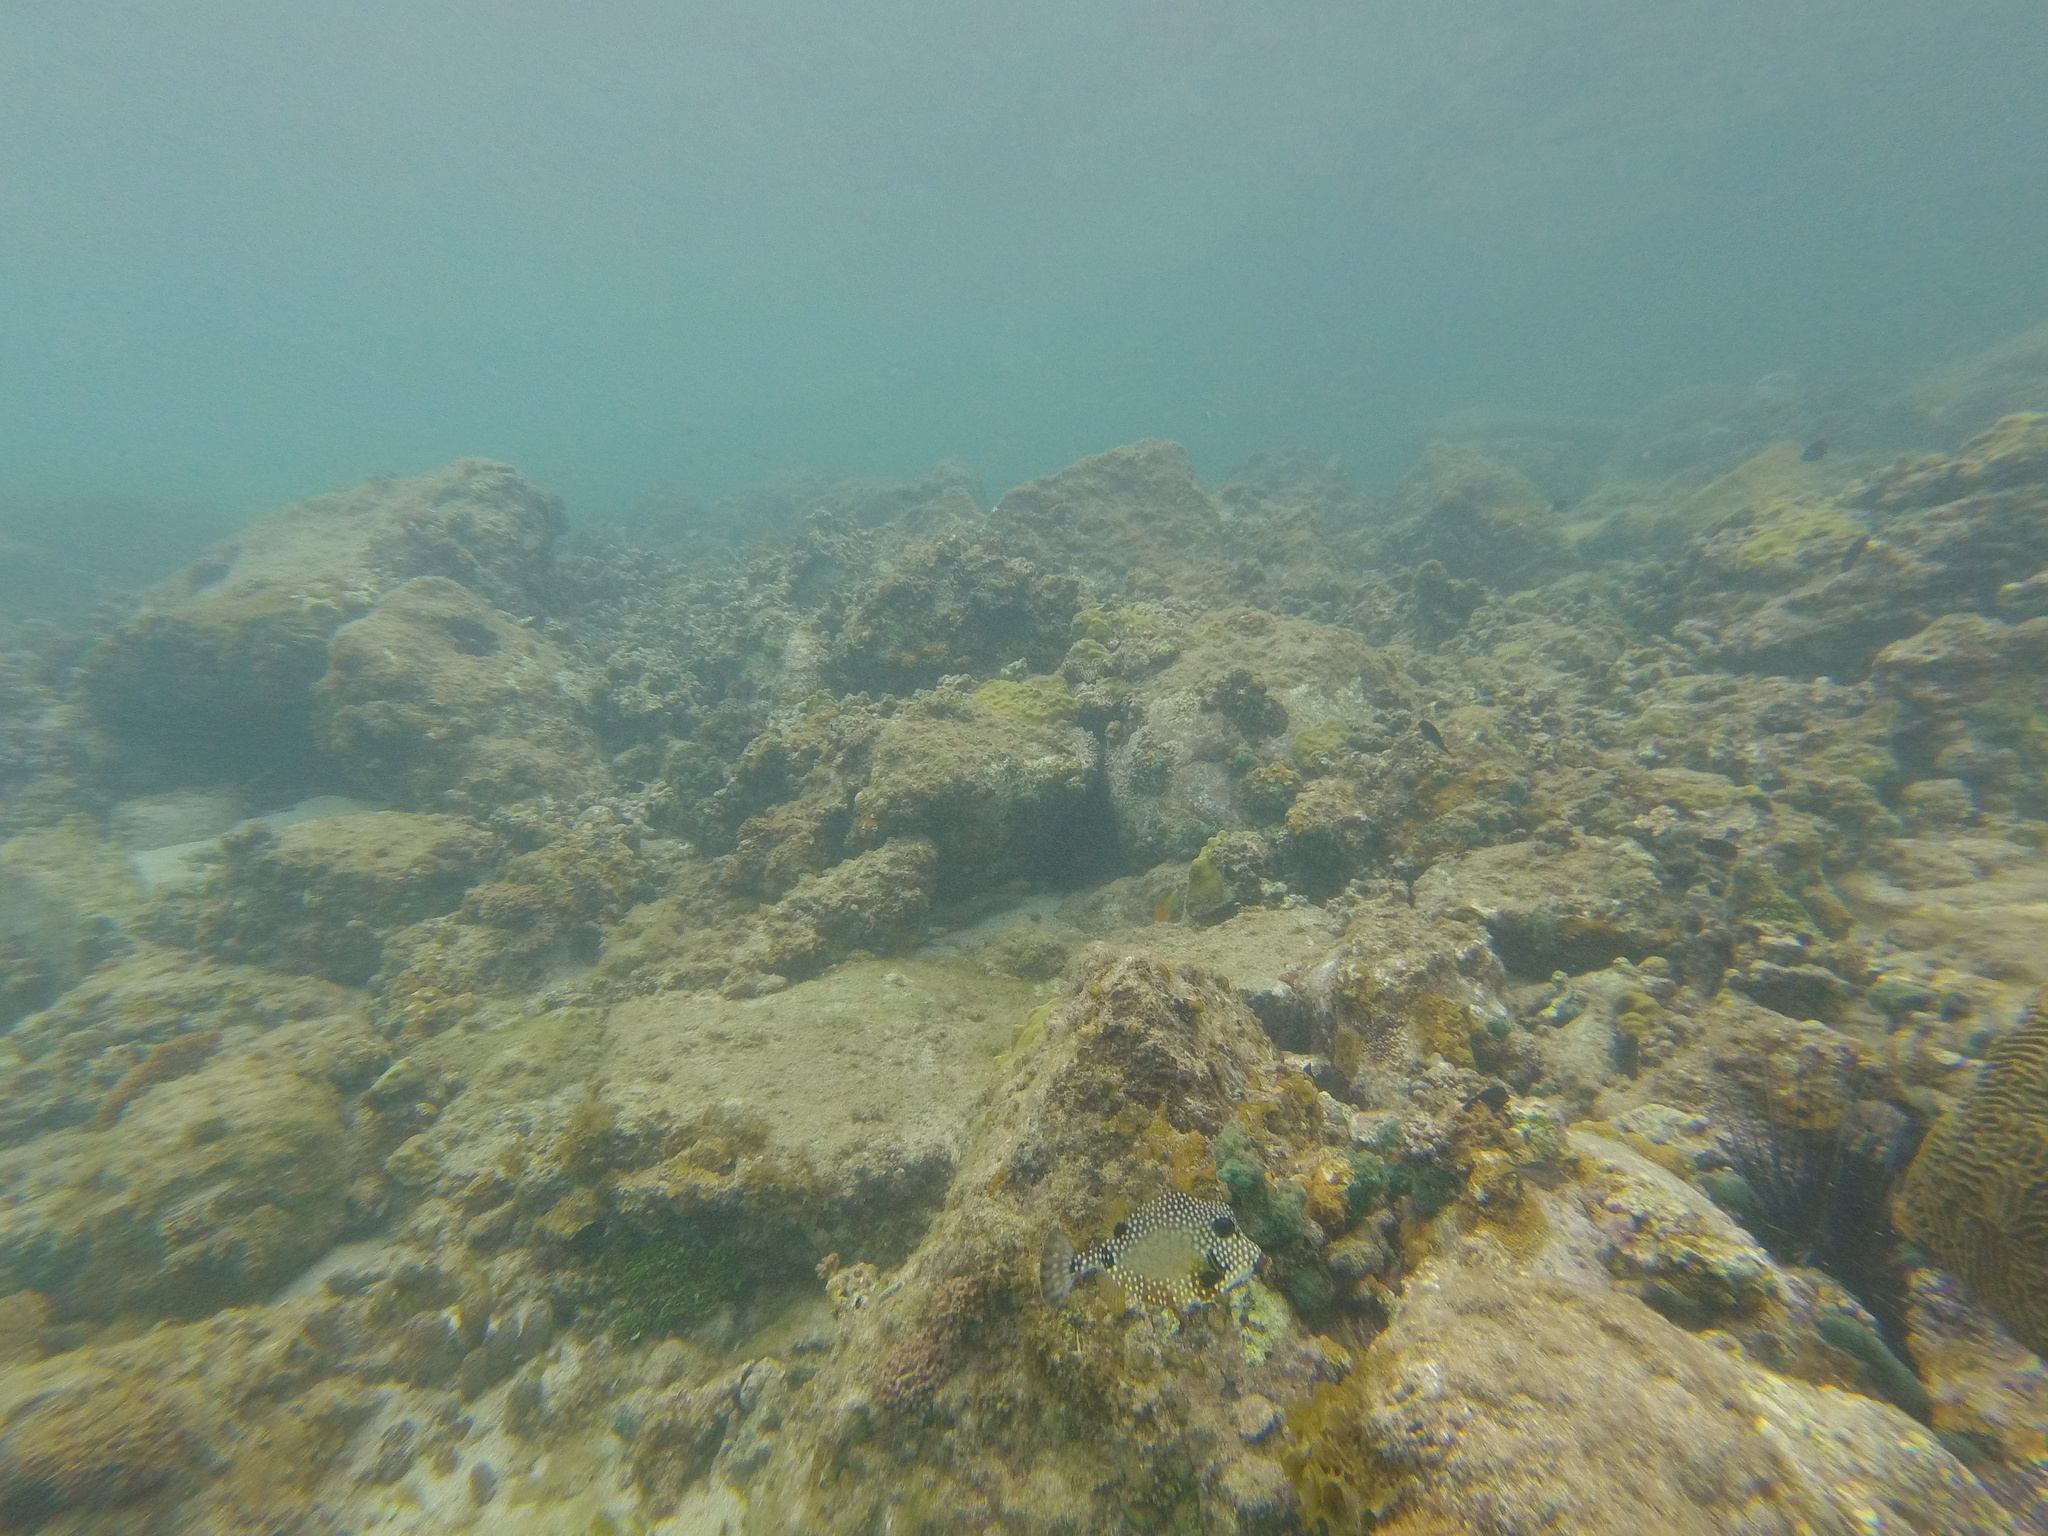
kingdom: Animalia
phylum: Chordata
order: Tetraodontiformes
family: Ostraciidae
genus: Lactophrys
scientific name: Lactophrys triqueter
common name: Smooth trunkfish
